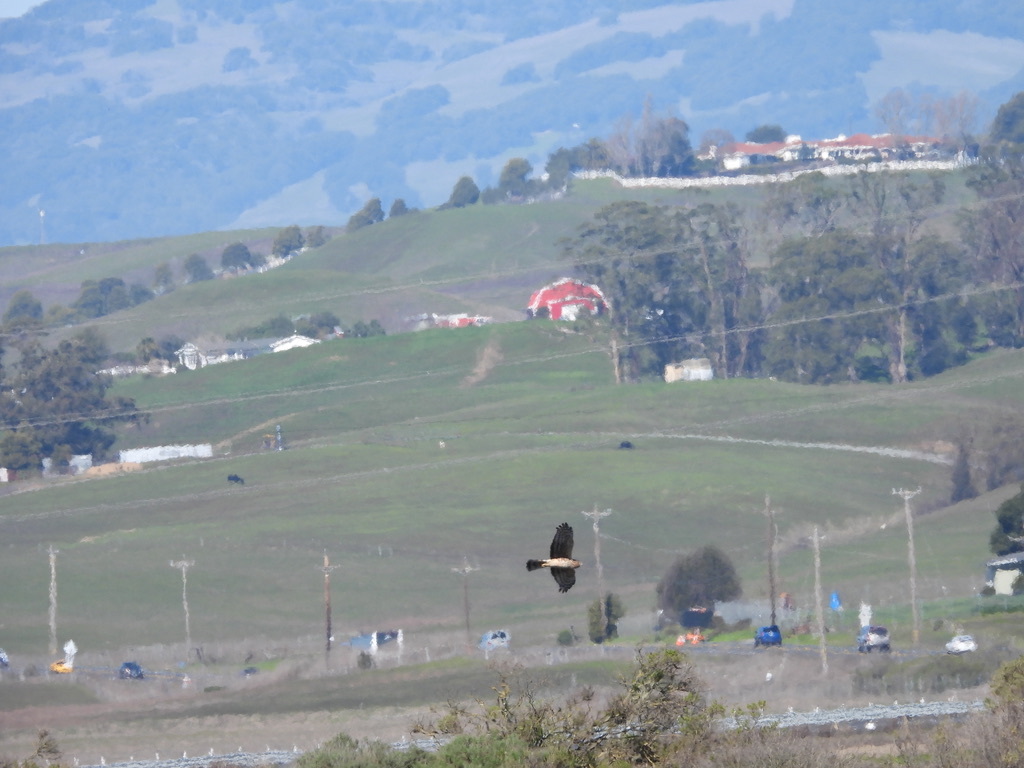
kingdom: Animalia
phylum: Chordata
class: Aves
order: Accipitriformes
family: Accipitridae
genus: Circus
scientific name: Circus cyaneus
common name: Hen harrier
